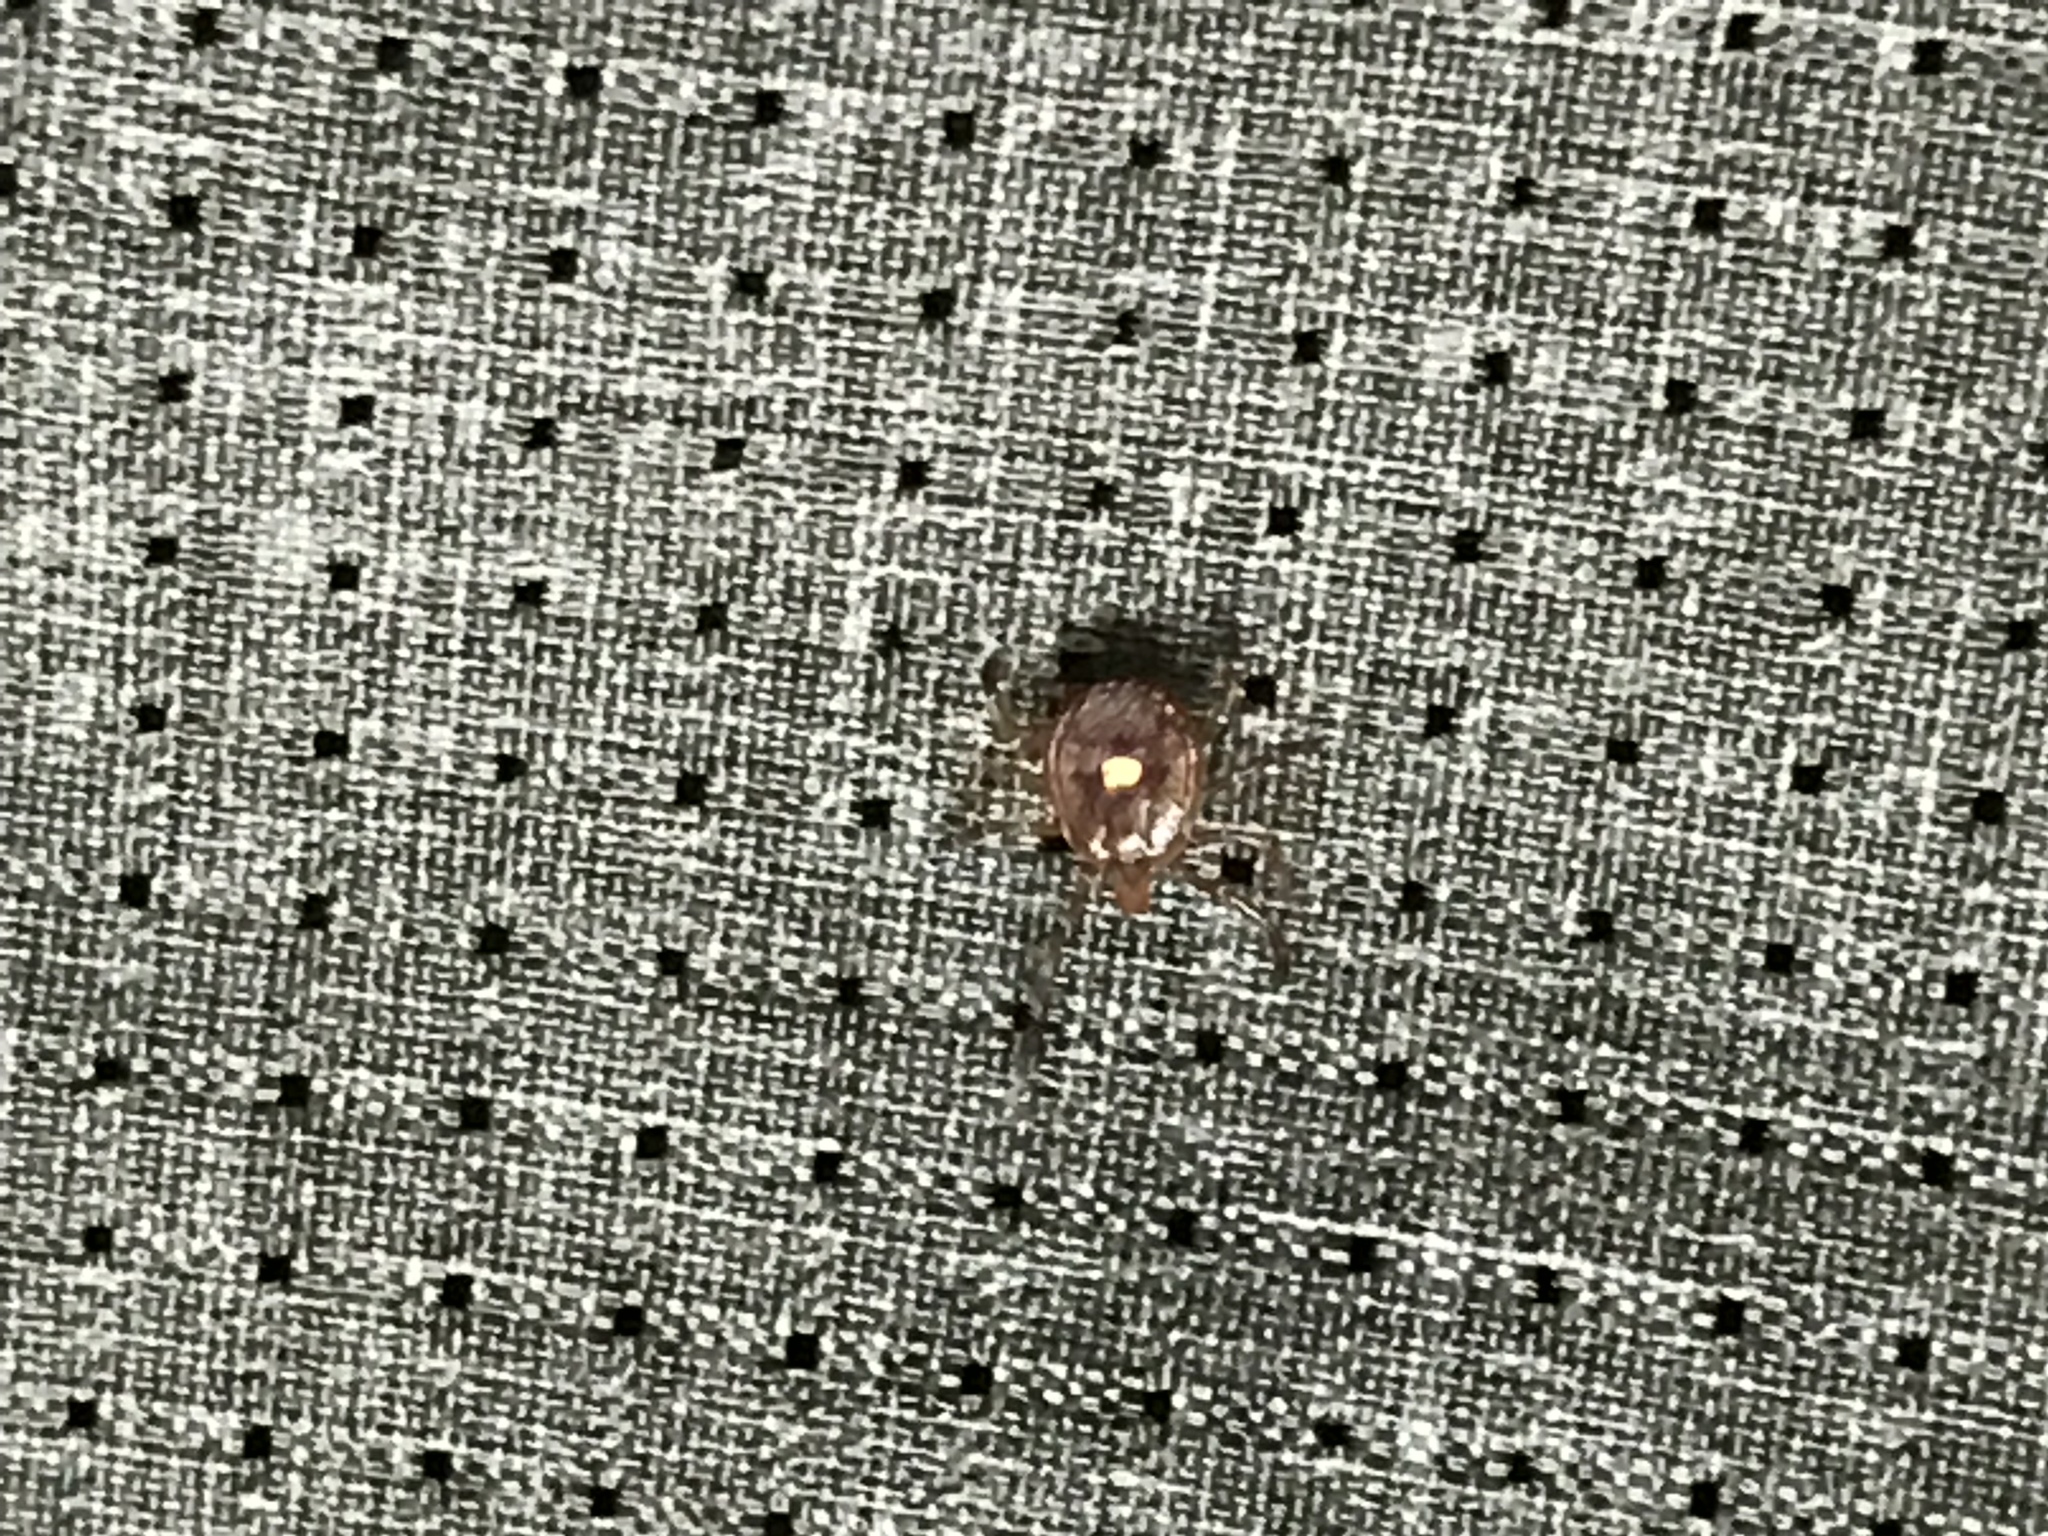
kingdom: Animalia
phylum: Arthropoda
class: Arachnida
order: Ixodida
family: Ixodidae
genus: Amblyomma
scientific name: Amblyomma americanum
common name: Lone star tick
